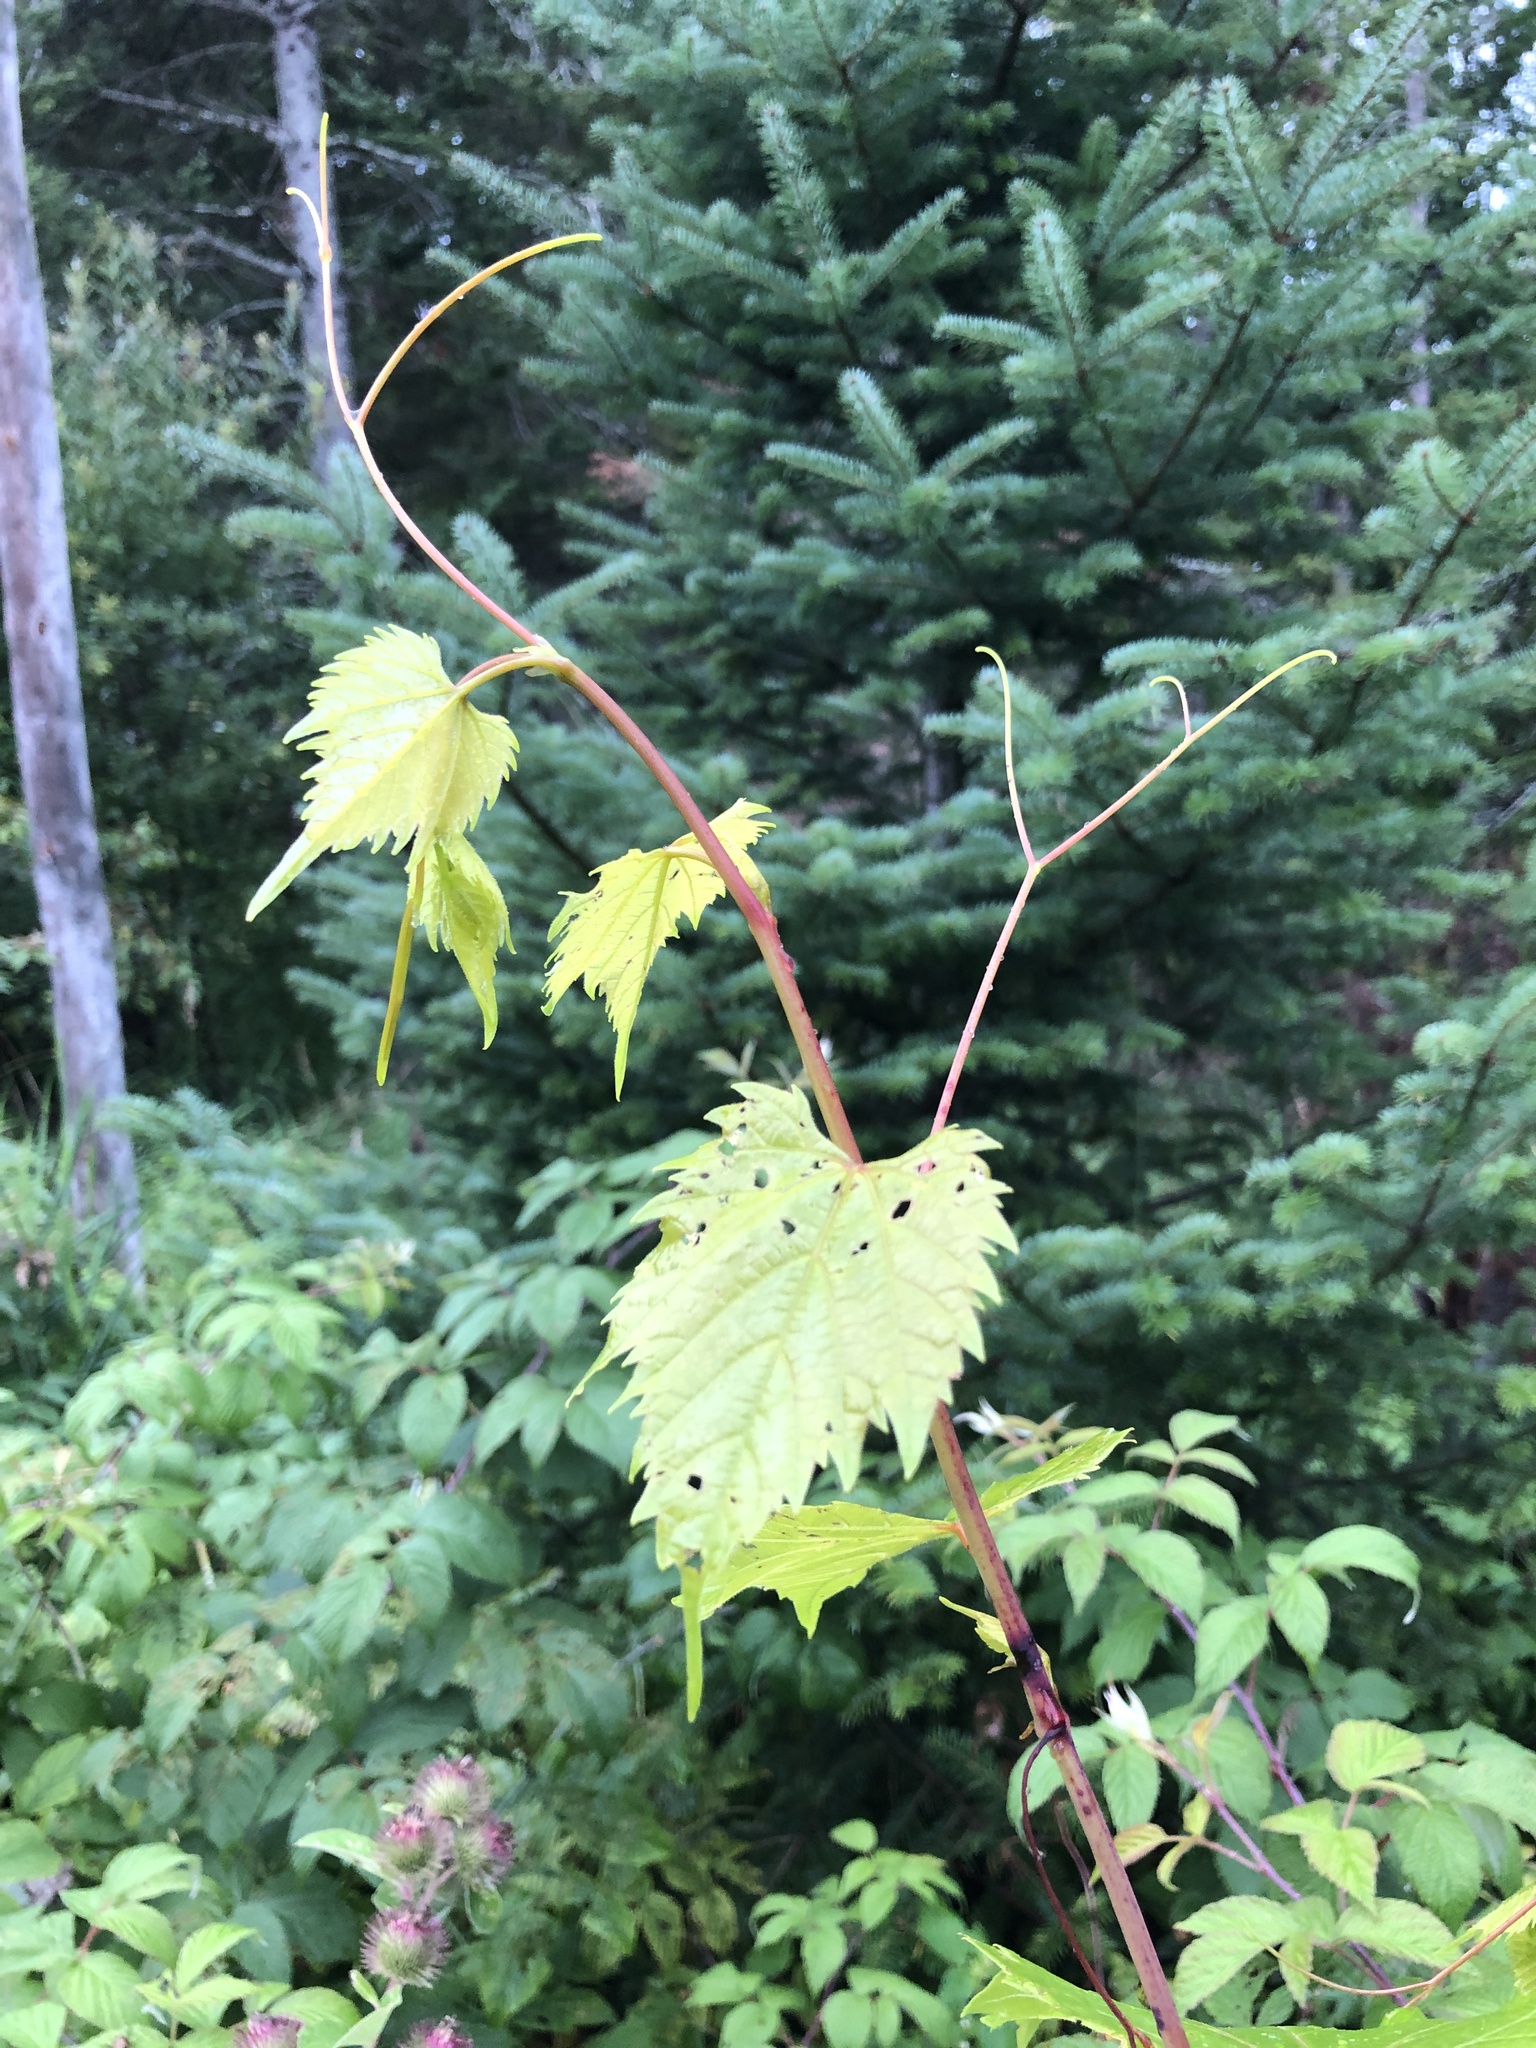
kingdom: Plantae
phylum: Tracheophyta
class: Magnoliopsida
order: Vitales
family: Vitaceae
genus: Vitis
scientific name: Vitis riparia
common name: Frost grape
